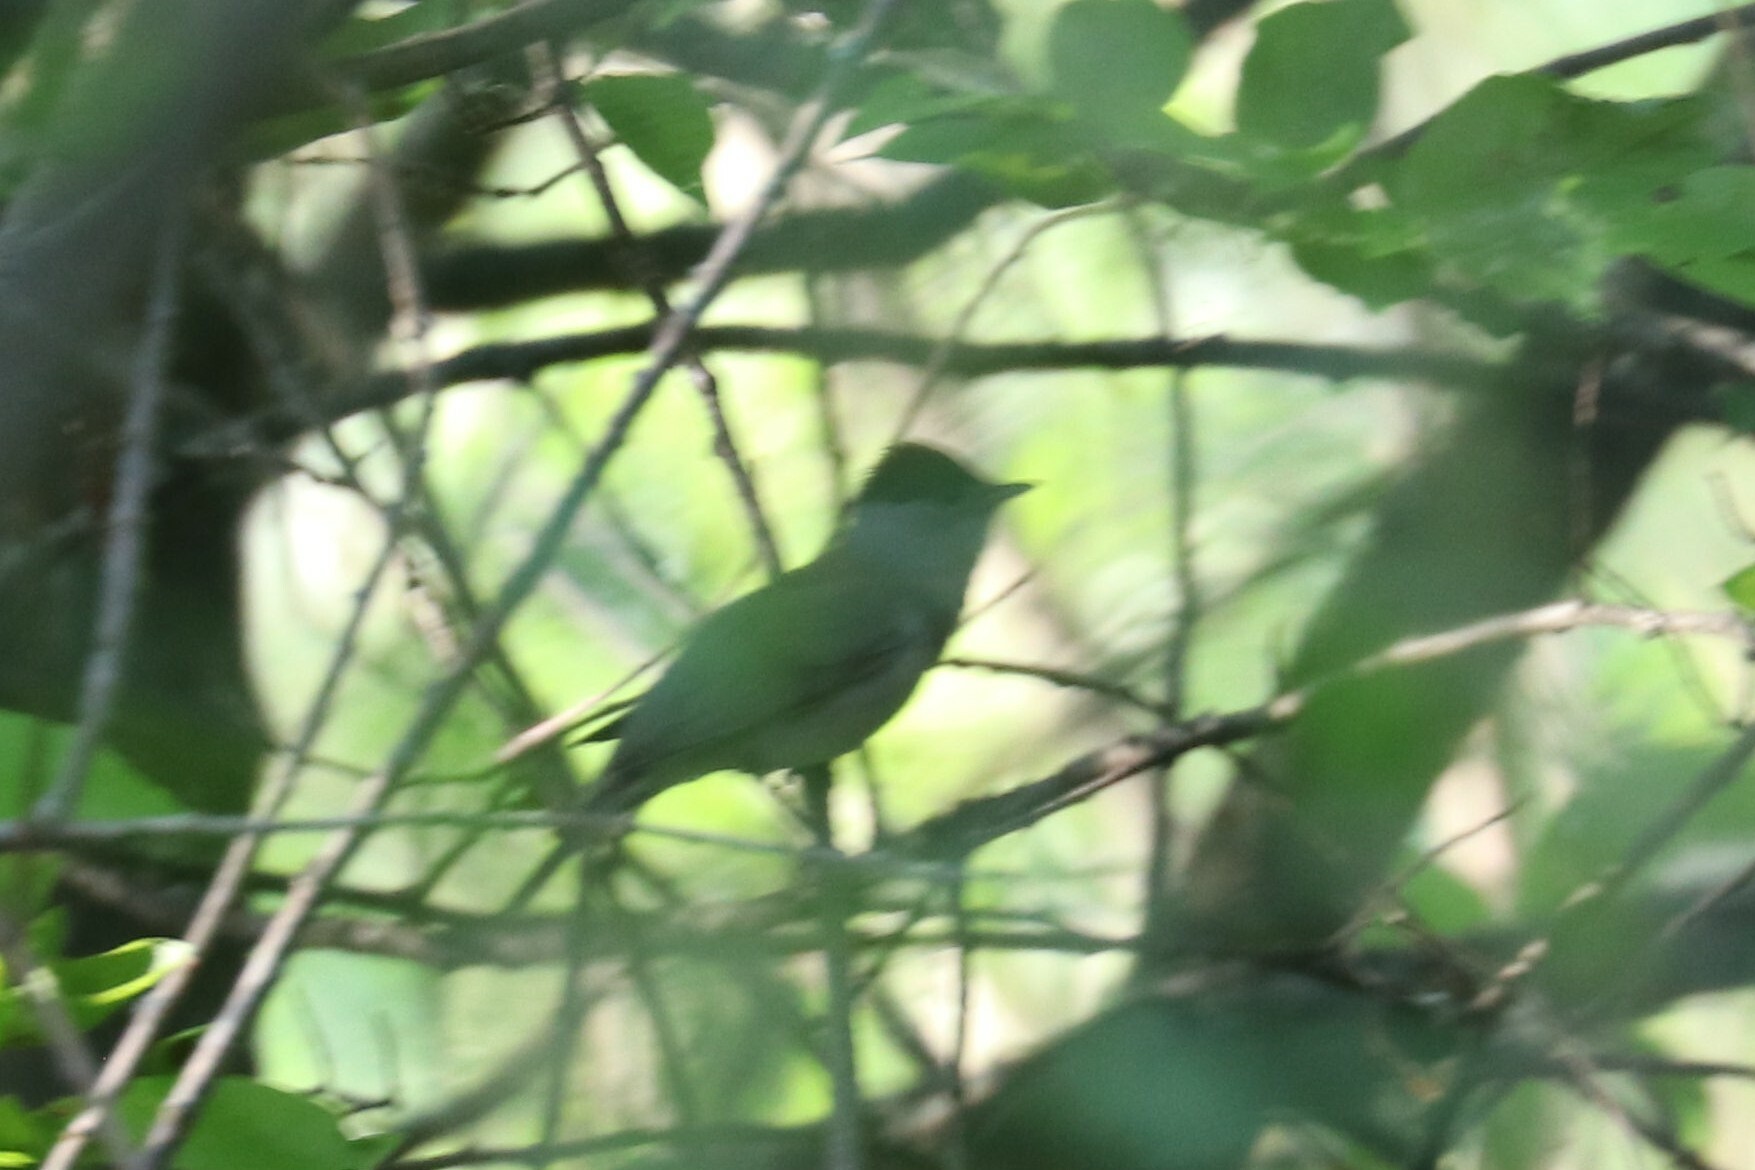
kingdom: Animalia
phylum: Chordata
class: Aves
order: Passeriformes
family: Sylviidae
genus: Sylvia
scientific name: Sylvia atricapilla
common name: Eurasian blackcap
